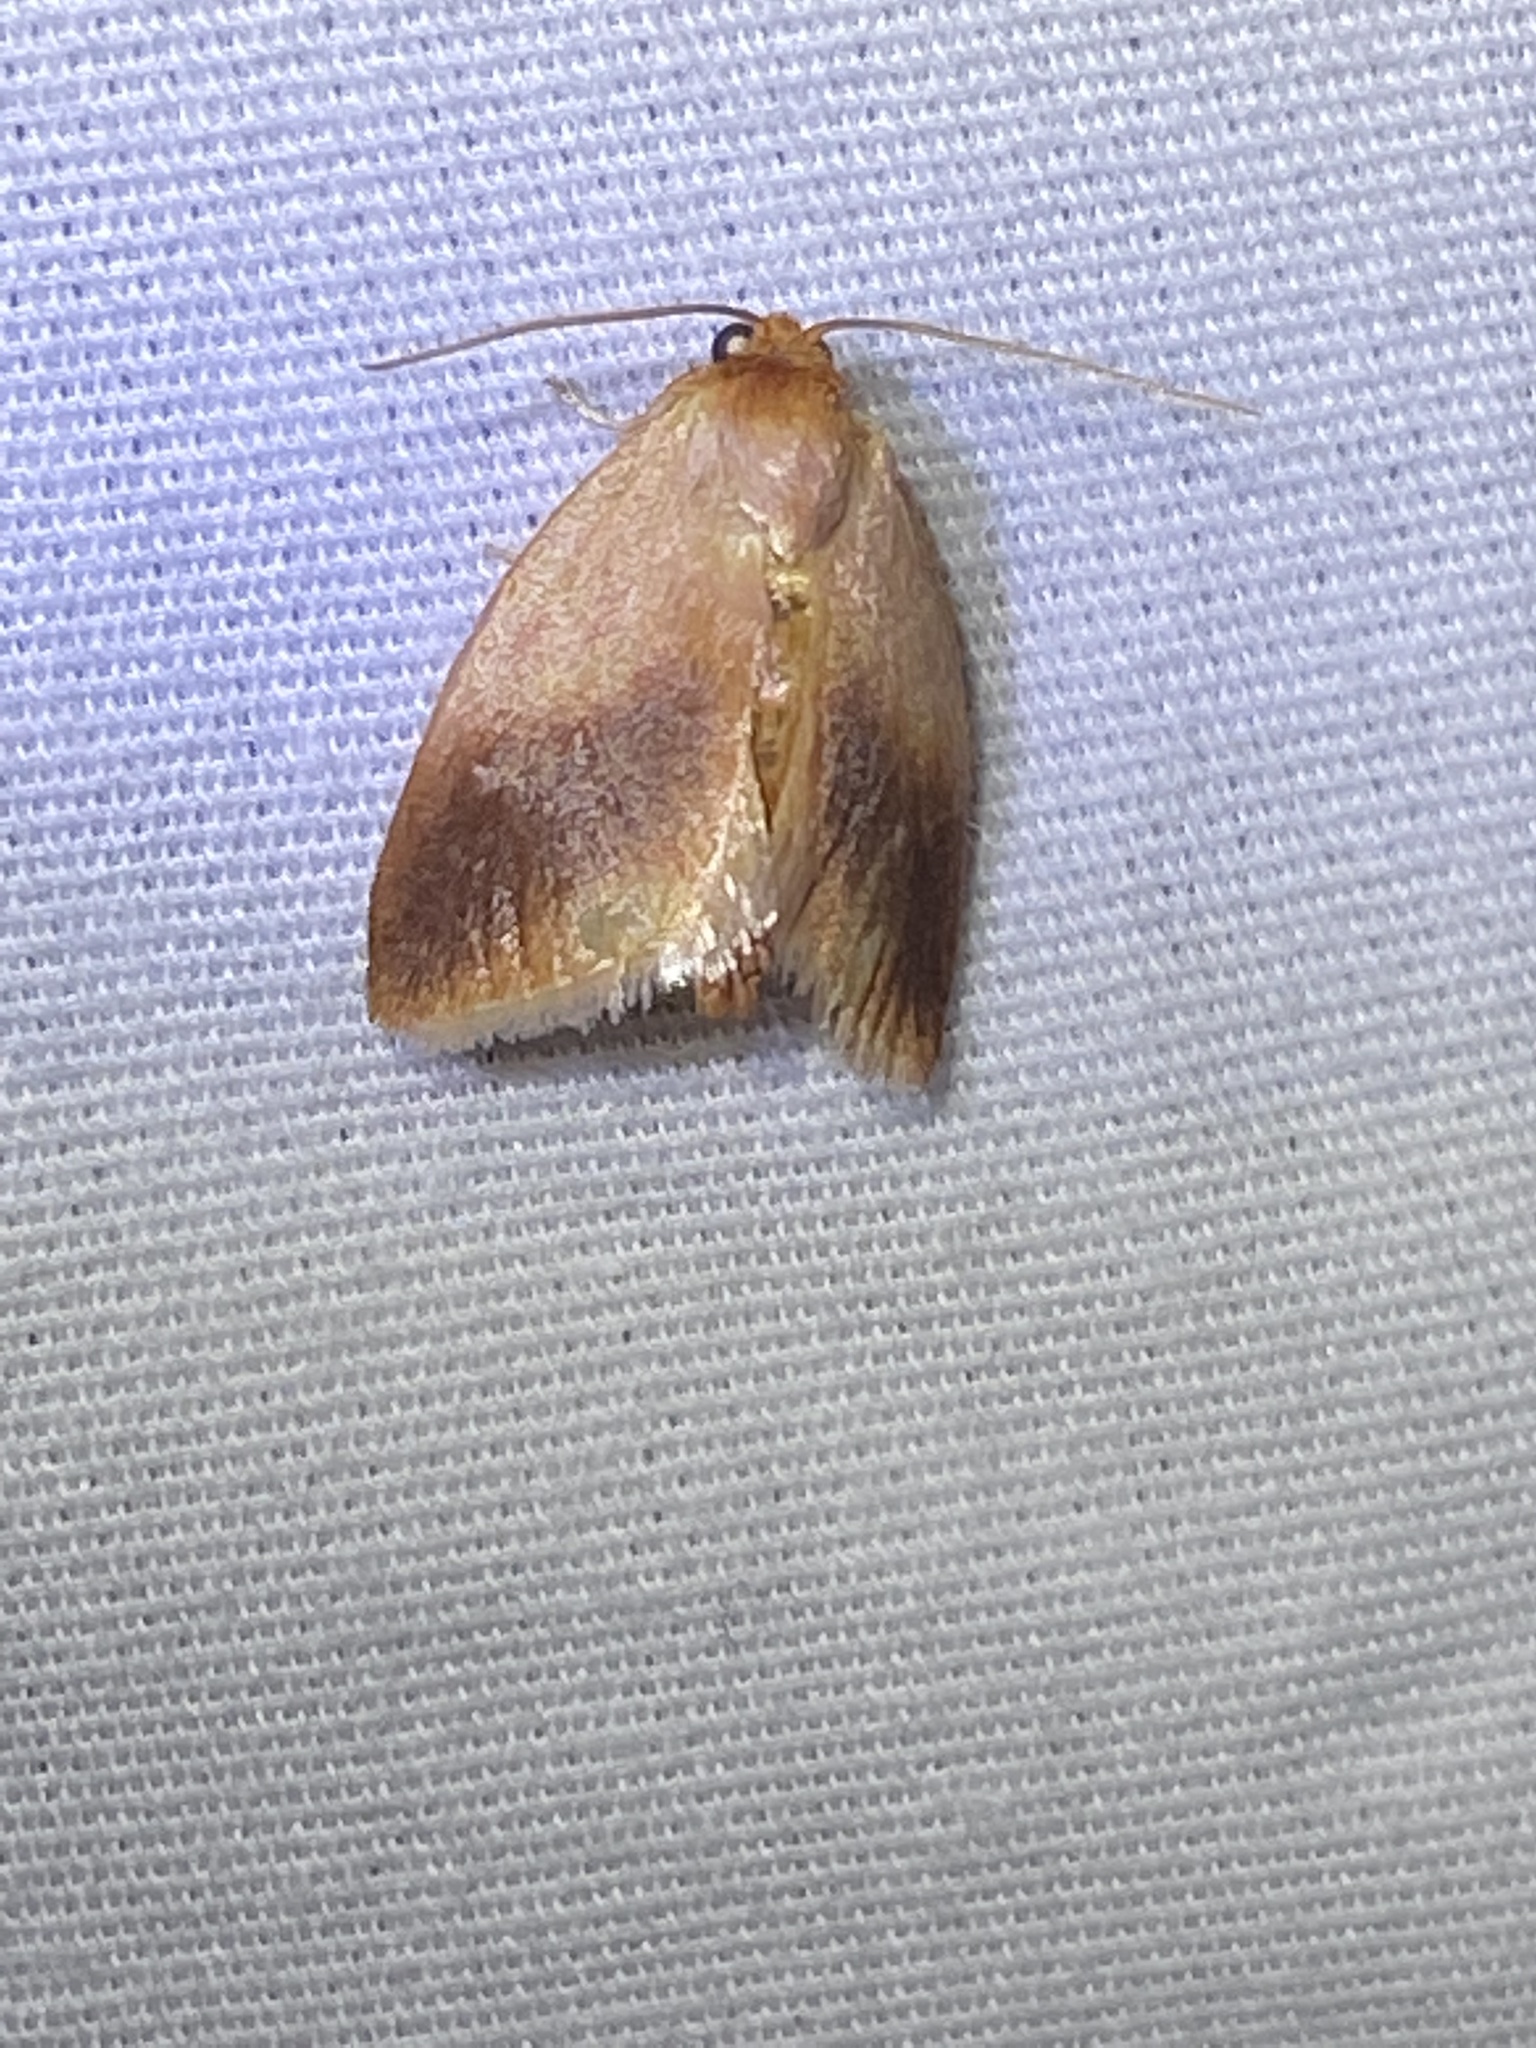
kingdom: Animalia
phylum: Arthropoda
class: Insecta
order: Lepidoptera
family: Limacodidae
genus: Tortricidia
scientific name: Tortricidia testacea
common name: Early button slug moth
